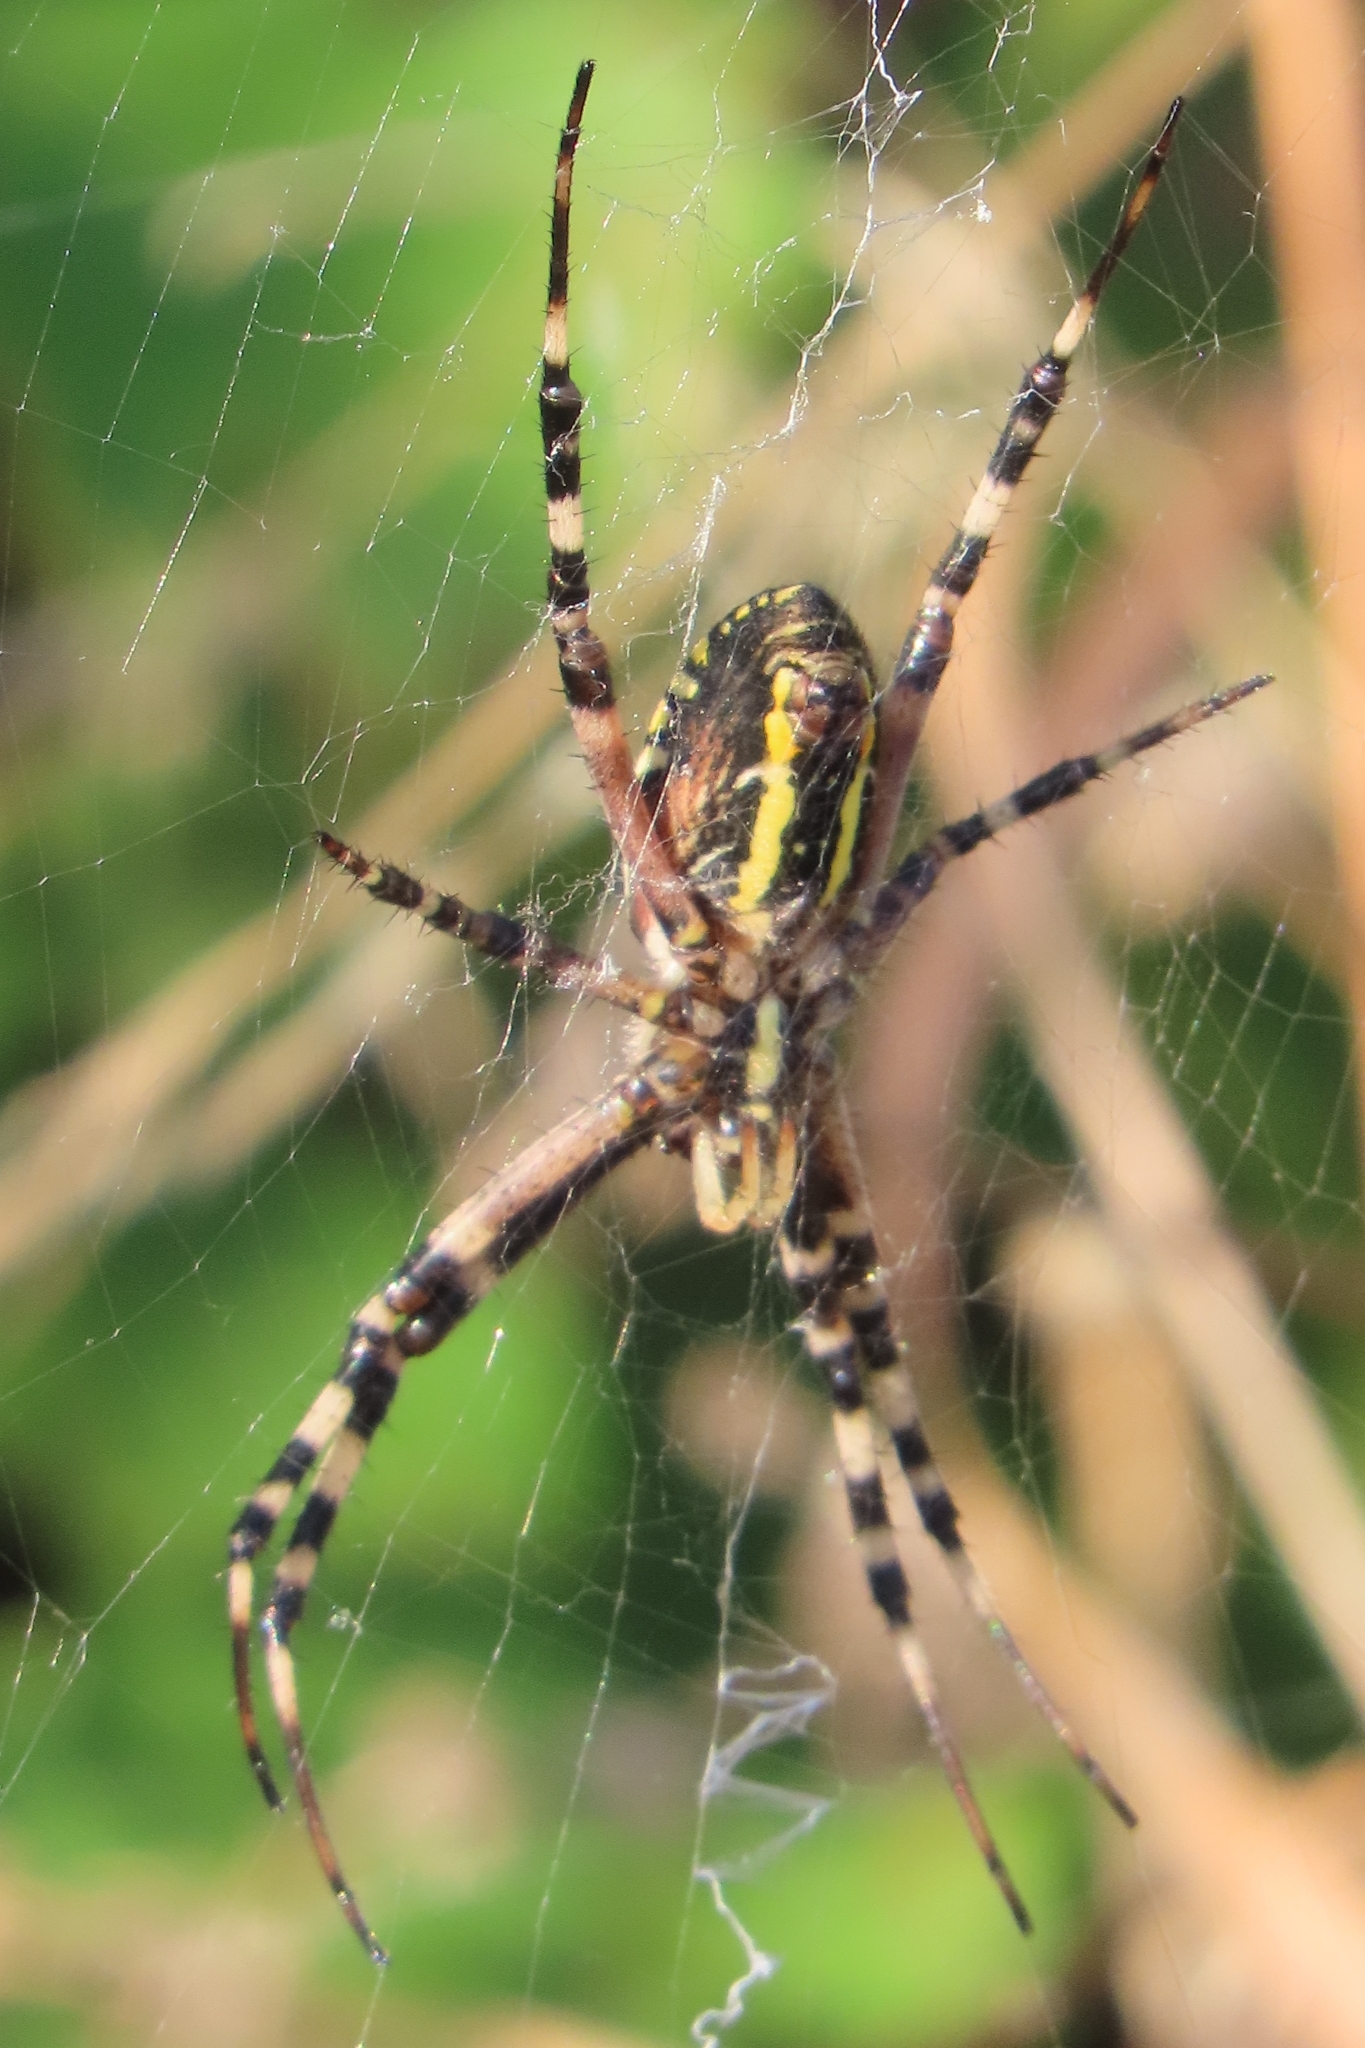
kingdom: Animalia
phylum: Arthropoda
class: Arachnida
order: Araneae
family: Araneidae
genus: Argiope
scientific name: Argiope bruennichi
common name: Wasp spider
